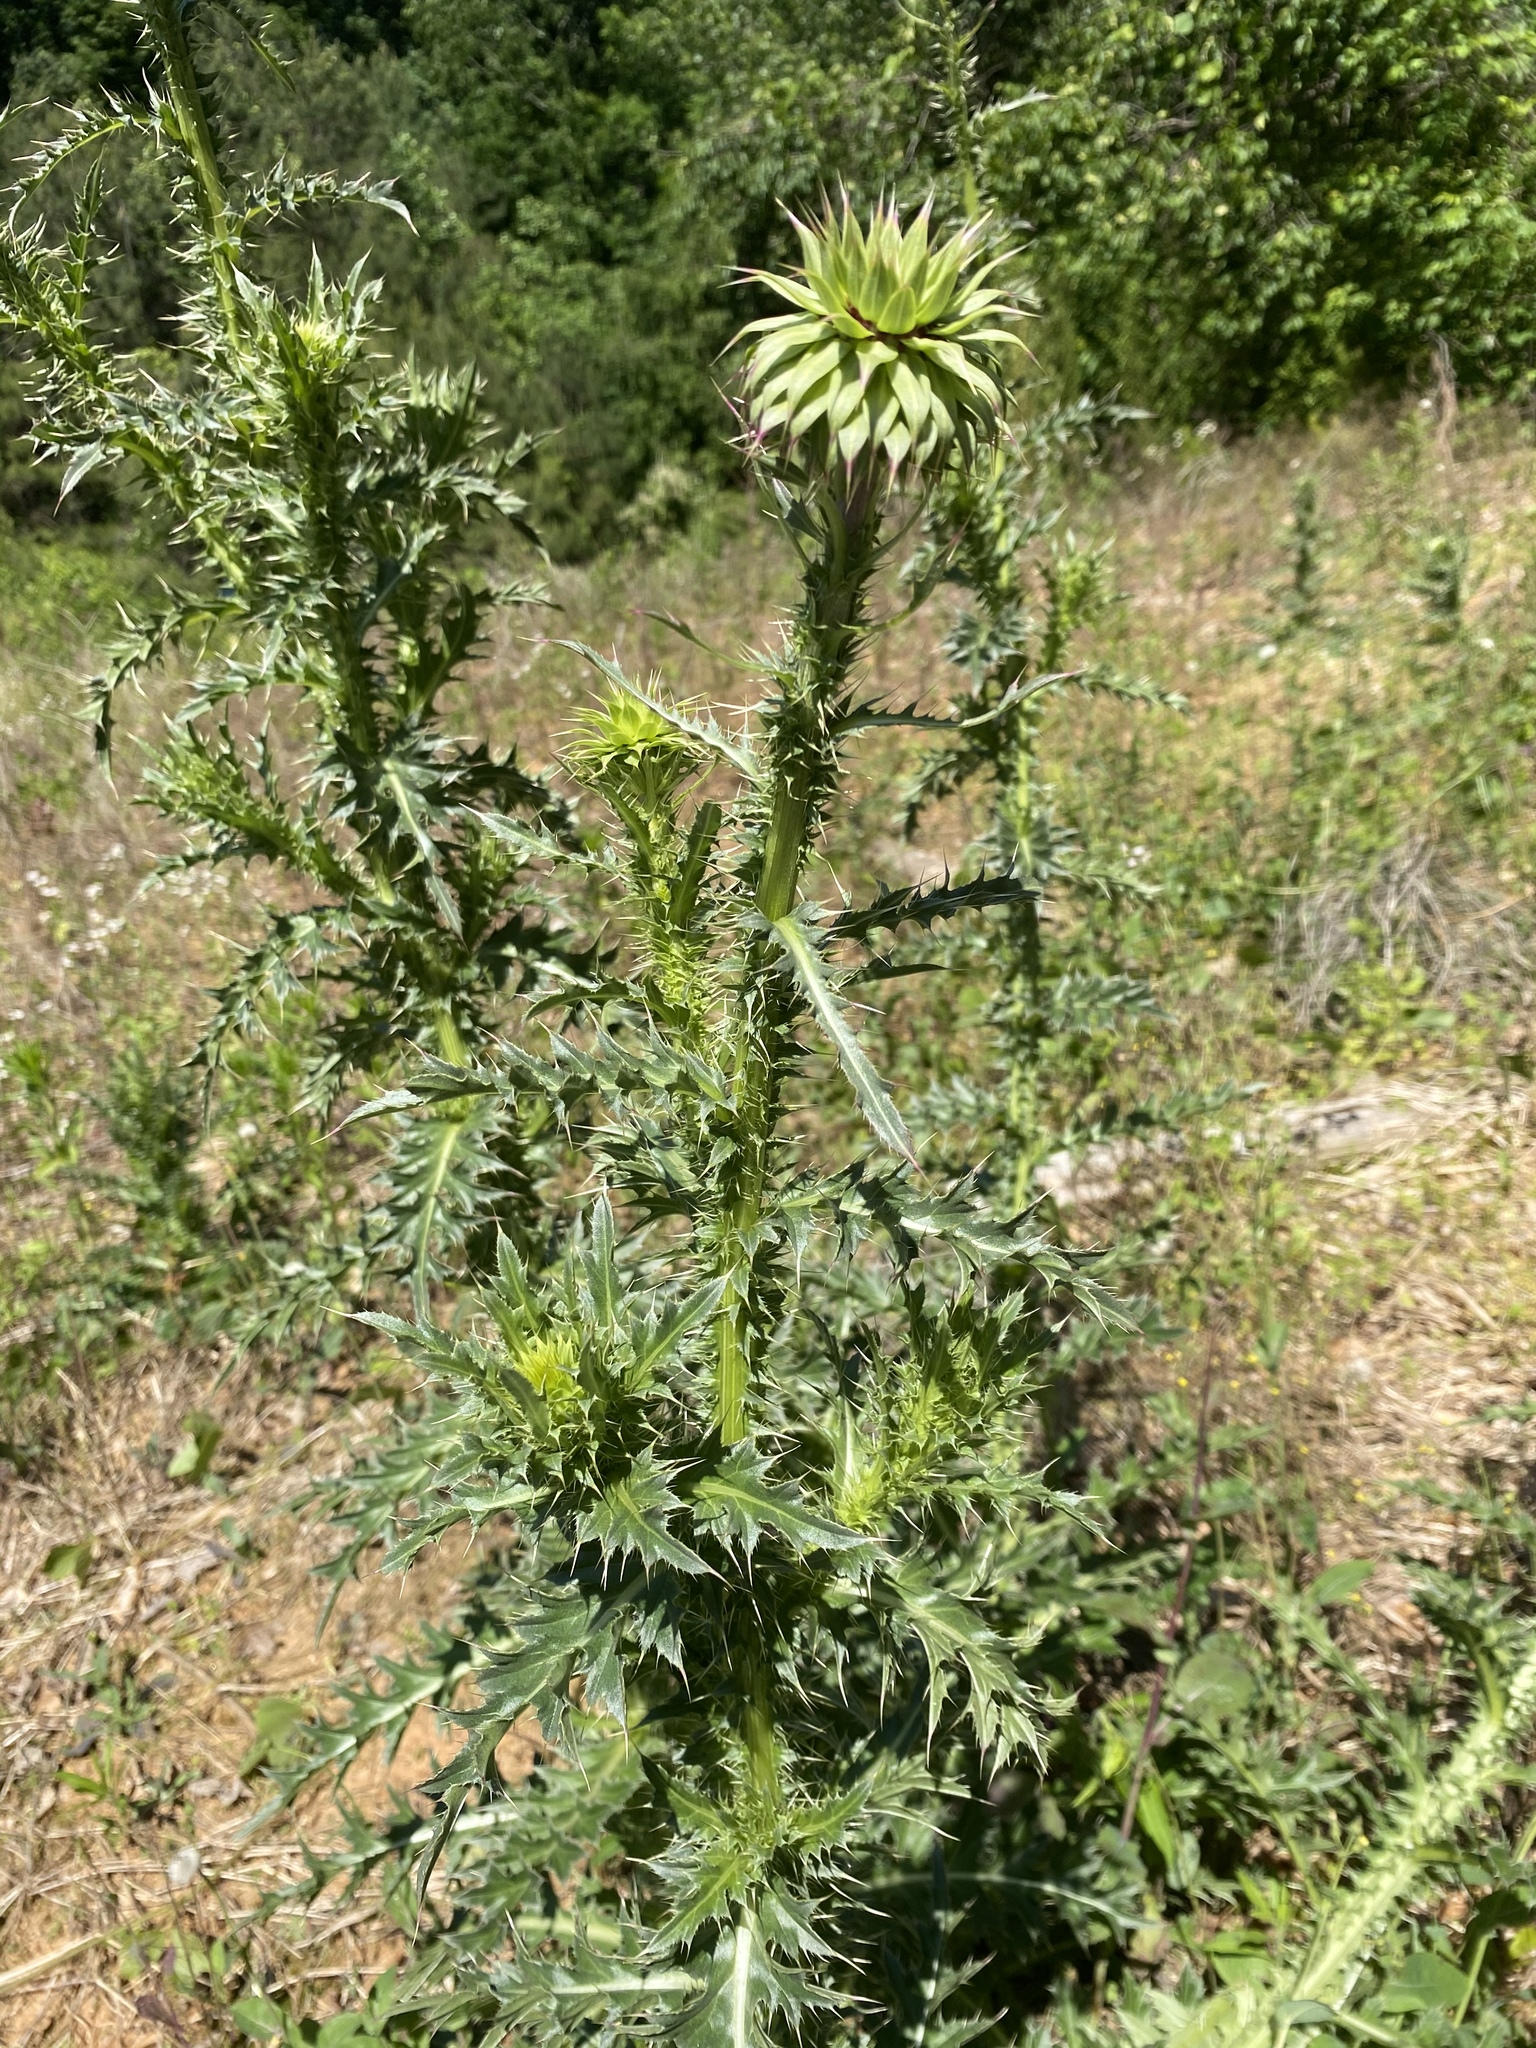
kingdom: Plantae
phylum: Tracheophyta
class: Magnoliopsida
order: Asterales
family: Asteraceae
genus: Carduus
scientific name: Carduus nutans
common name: Musk thistle
